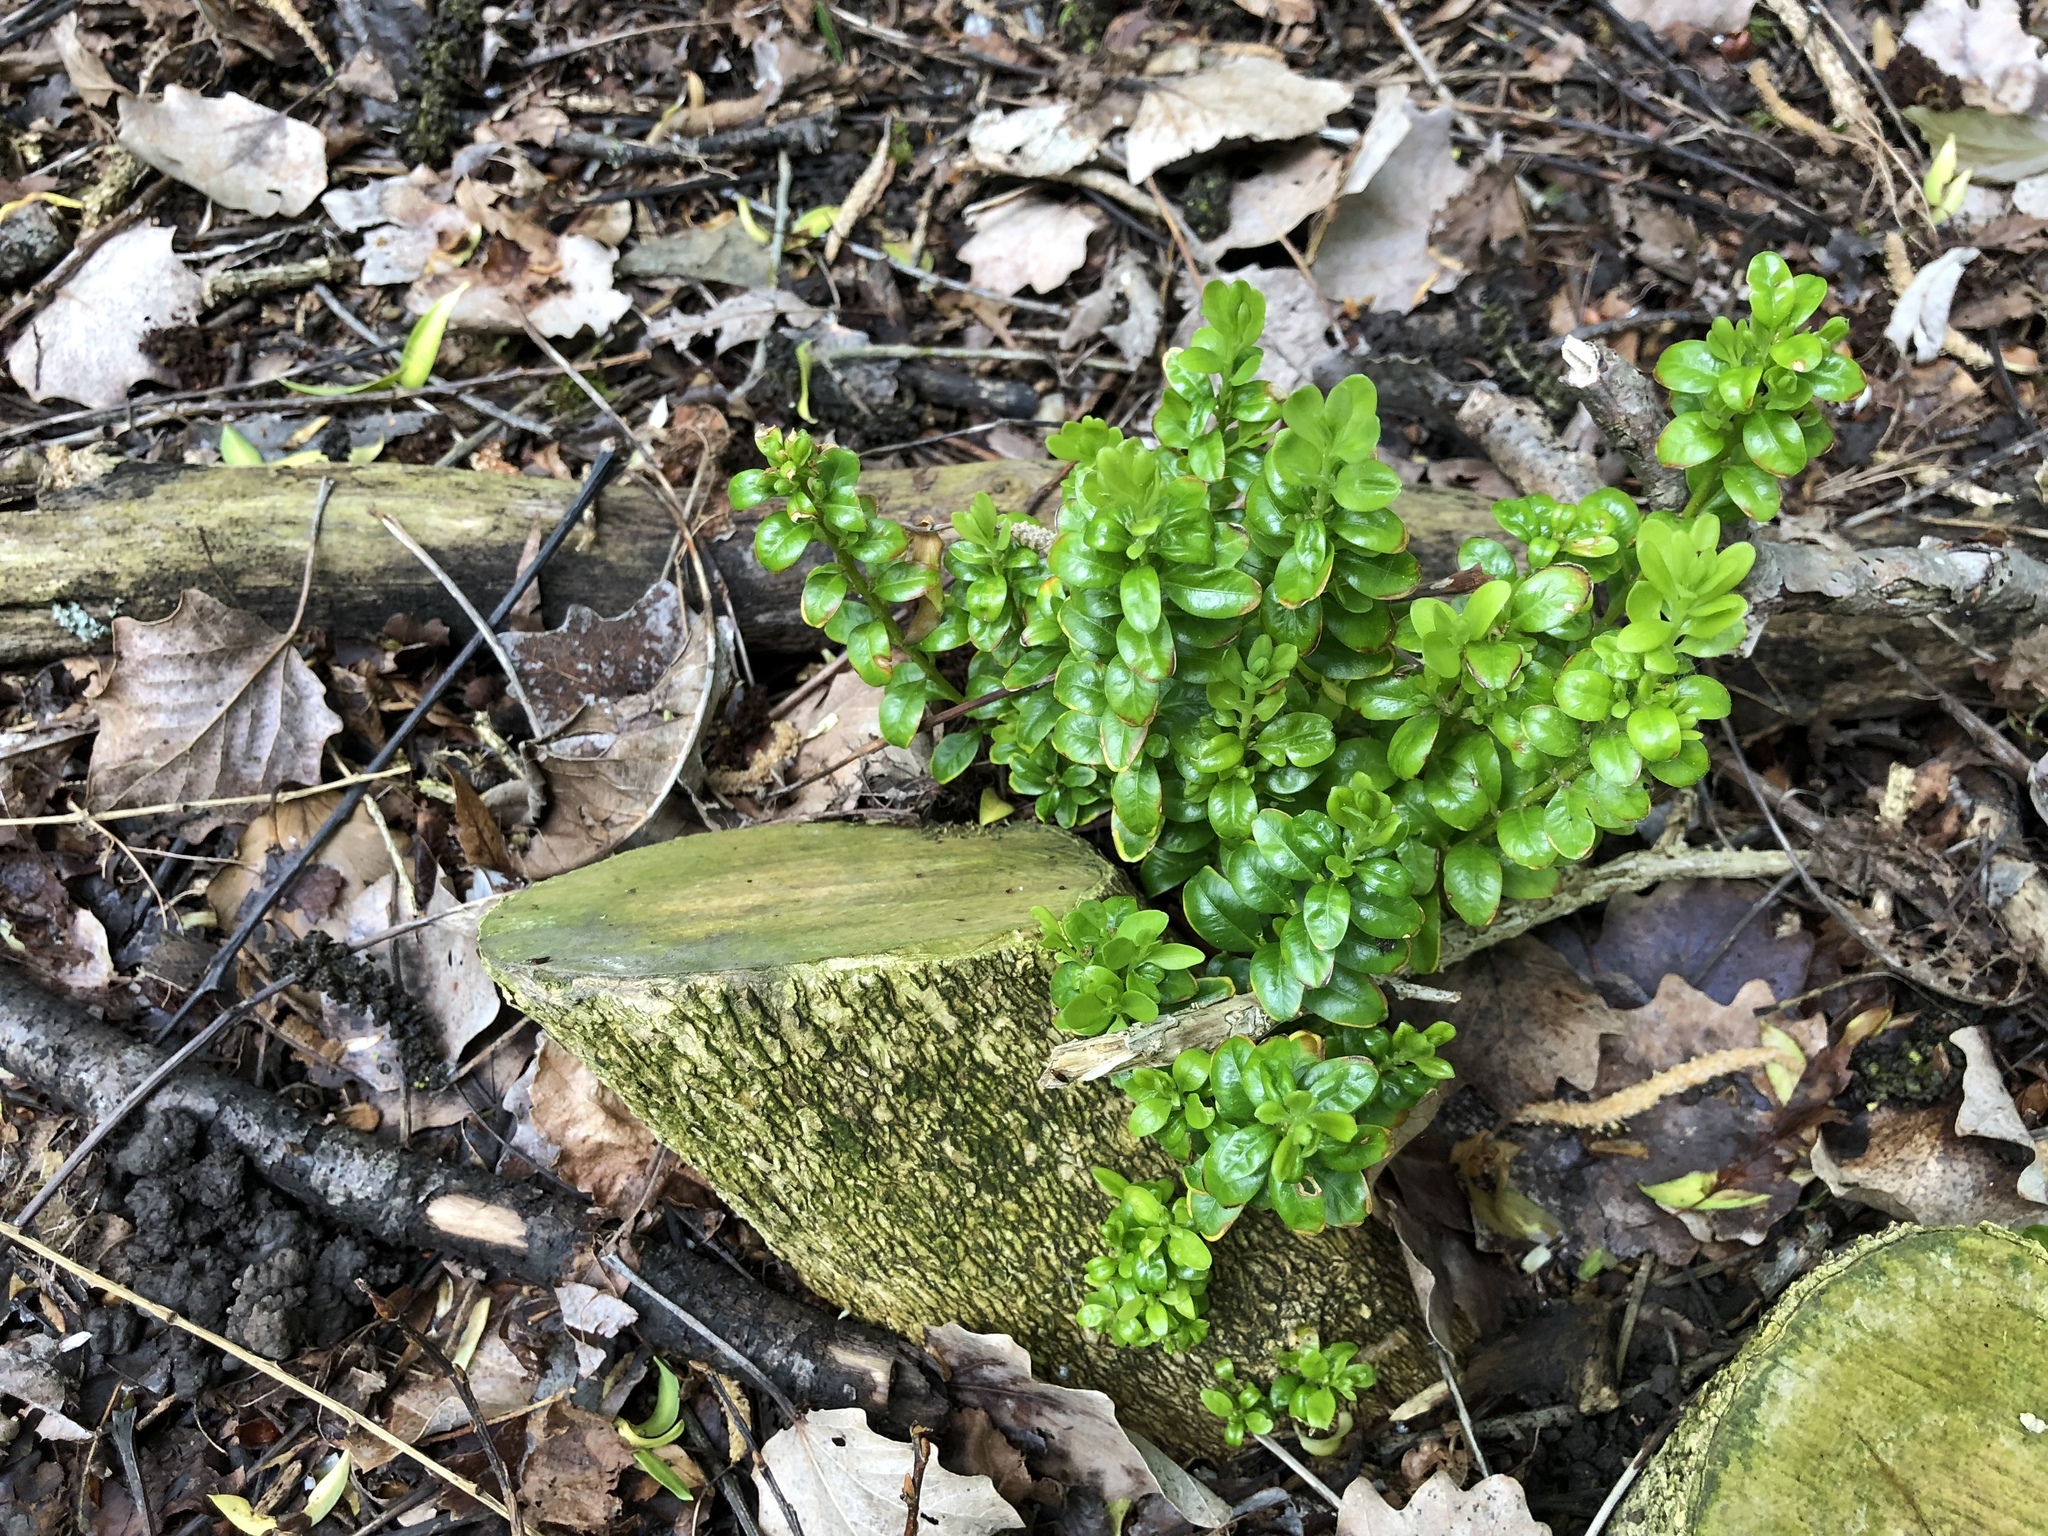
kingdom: Plantae
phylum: Tracheophyta
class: Magnoliopsida
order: Buxales
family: Buxaceae
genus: Buxus
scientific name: Buxus sempervirens
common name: Box
